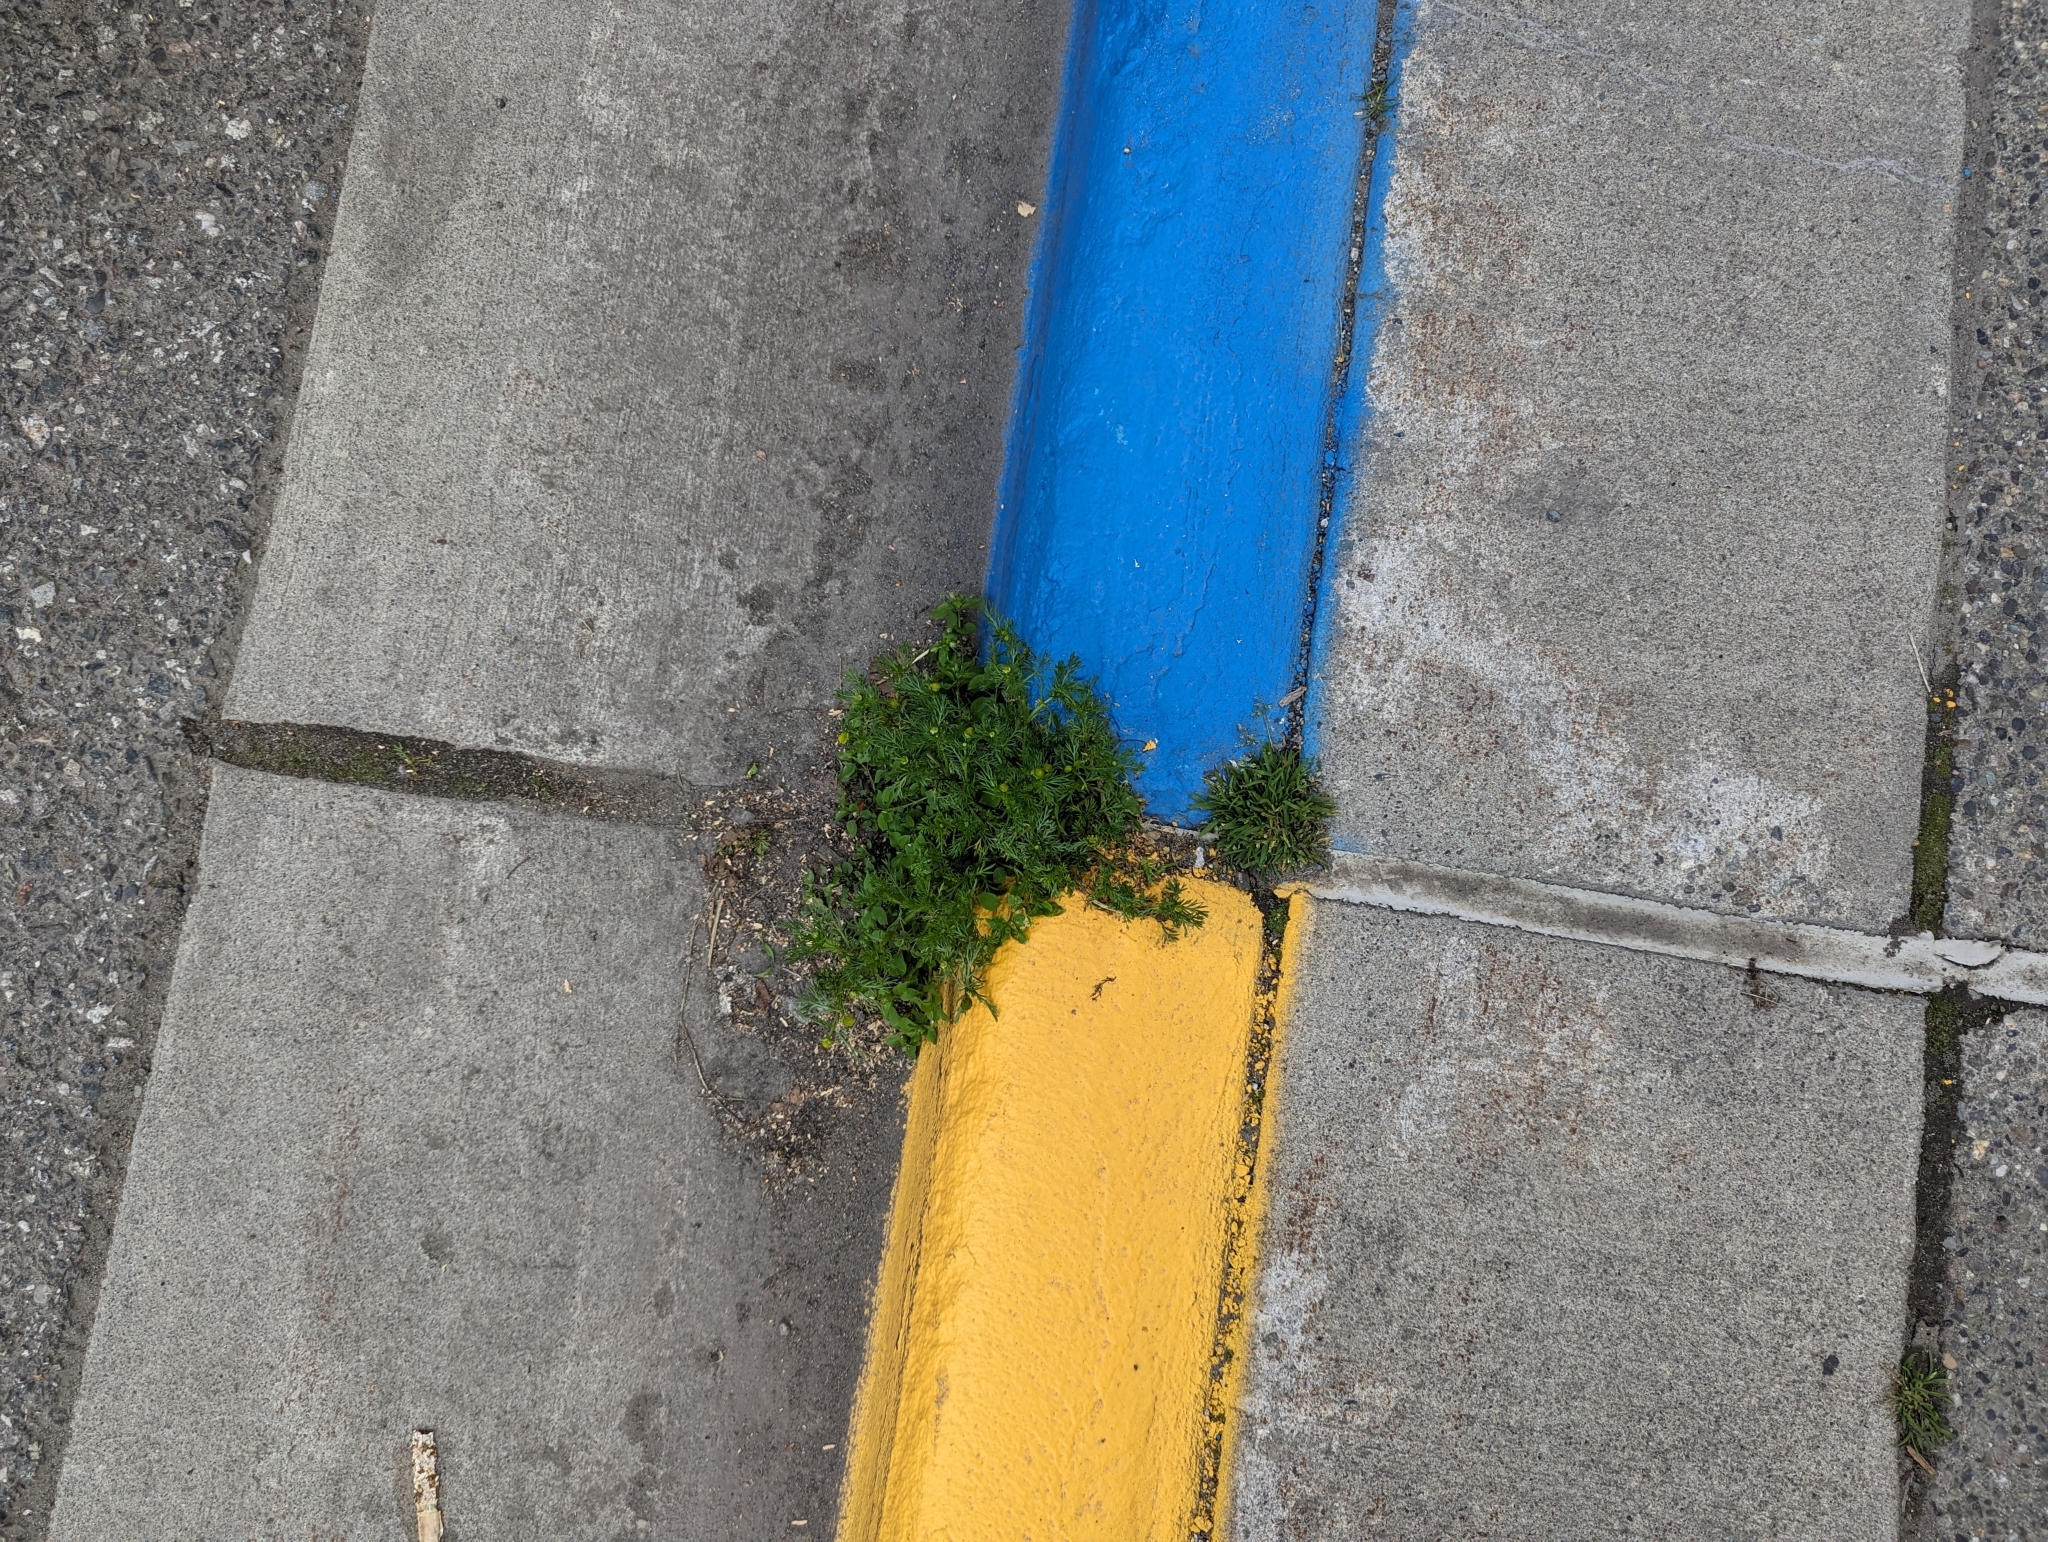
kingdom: Plantae
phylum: Tracheophyta
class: Magnoliopsida
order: Asterales
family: Asteraceae
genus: Matricaria
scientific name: Matricaria discoidea
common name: Disc mayweed
